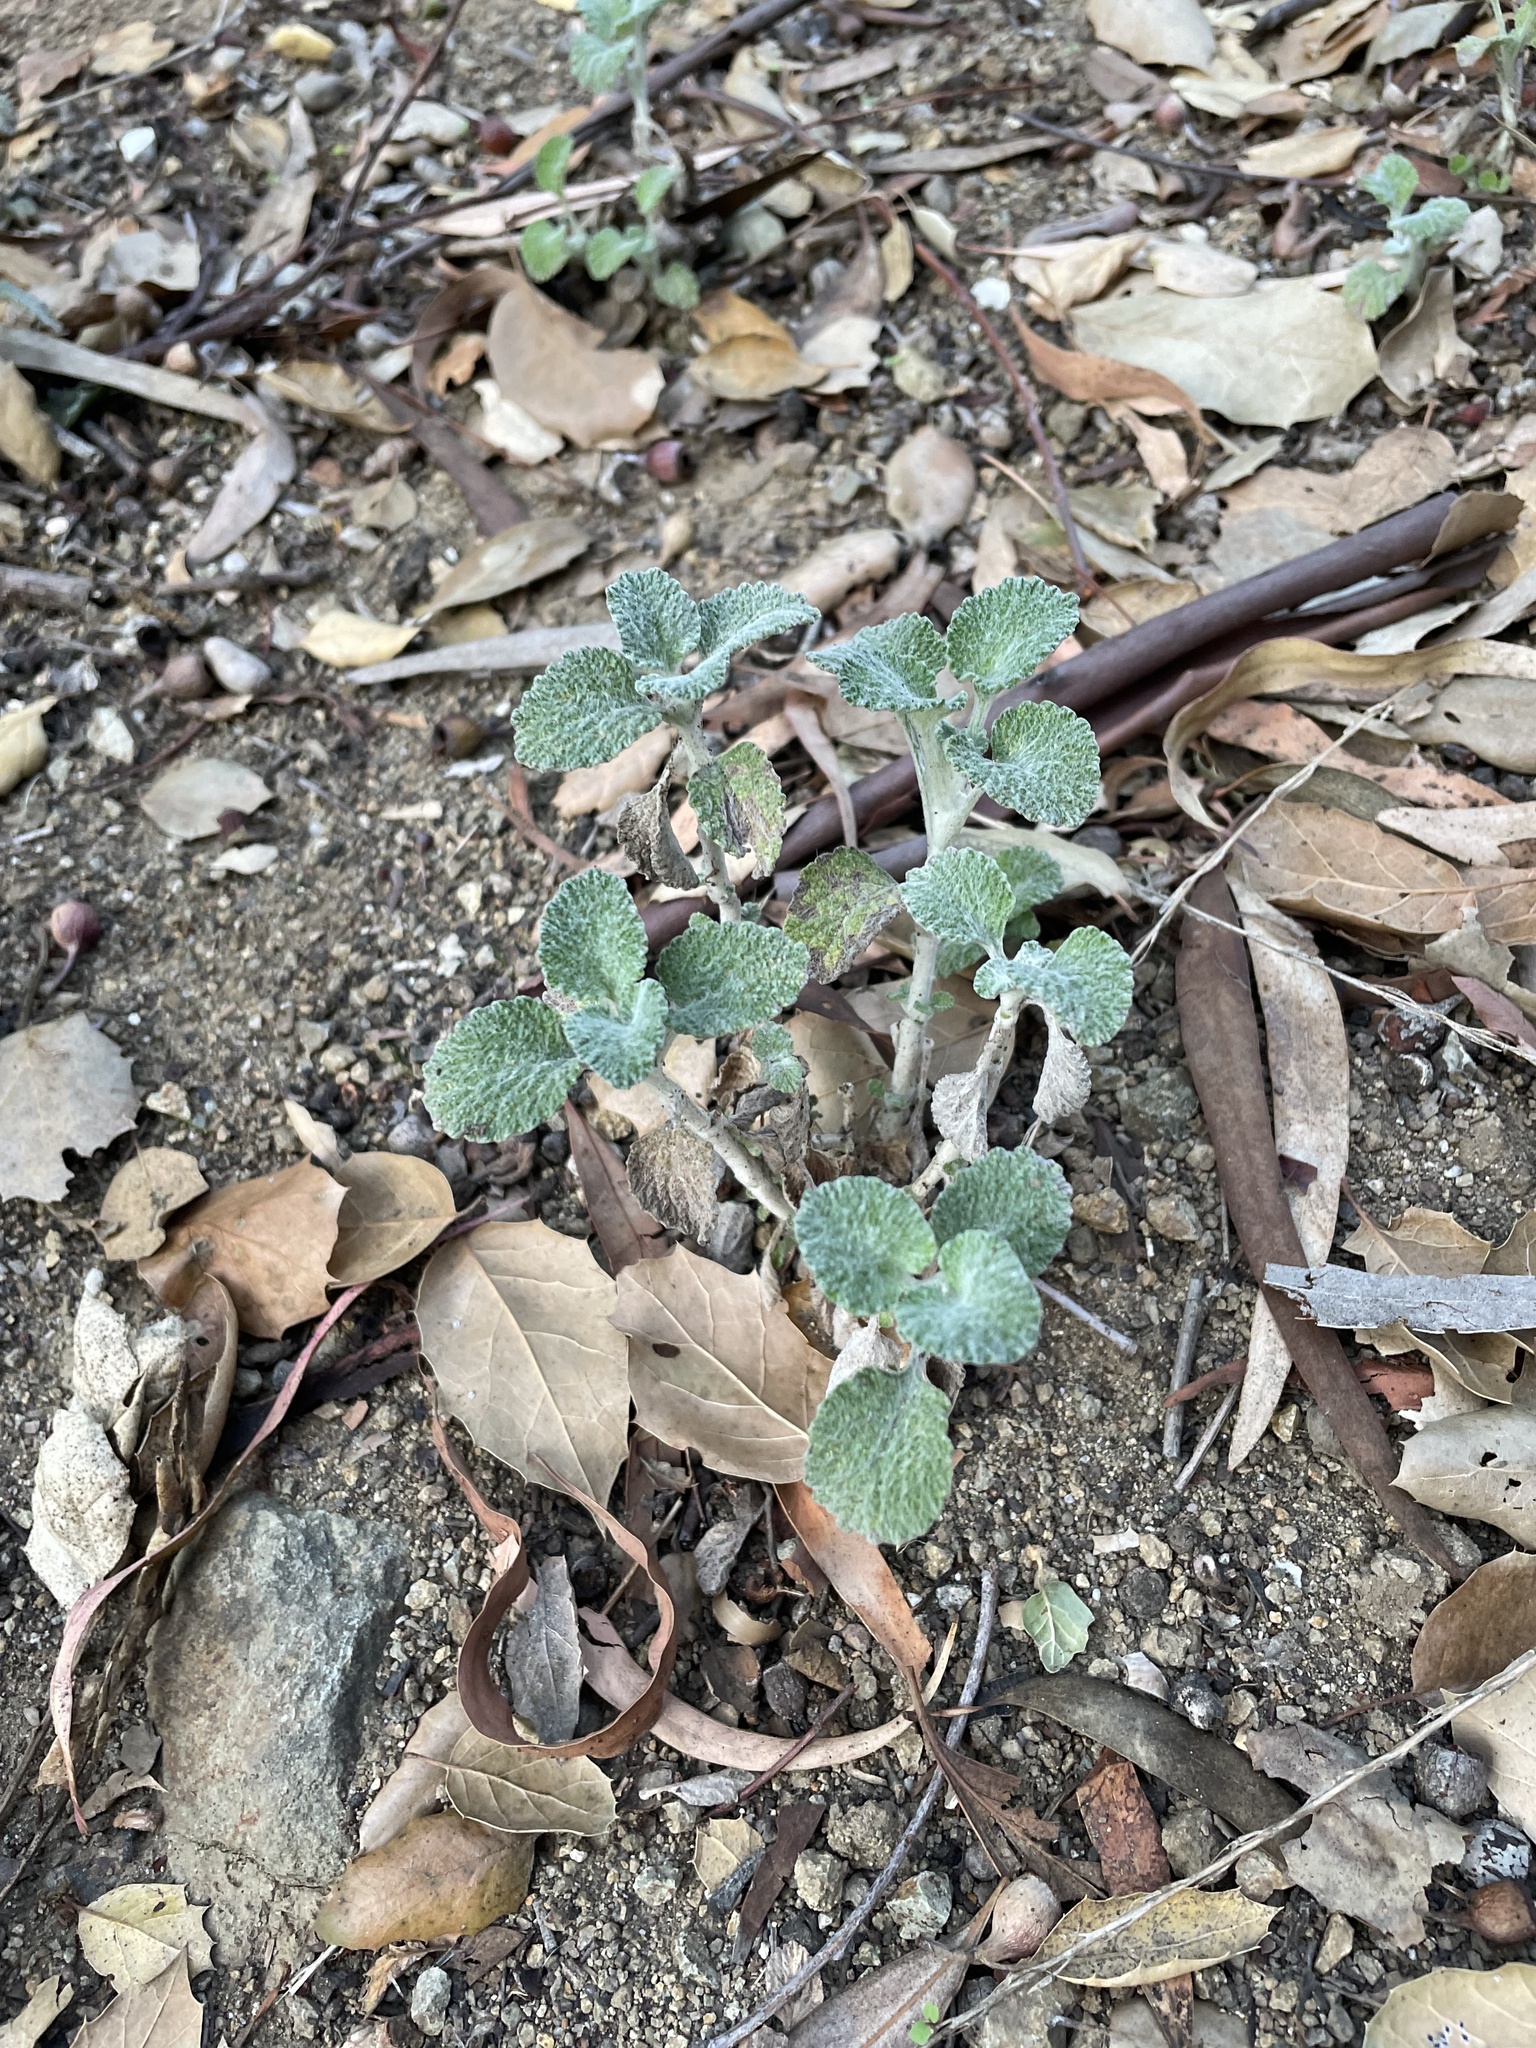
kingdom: Plantae
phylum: Tracheophyta
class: Magnoliopsida
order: Lamiales
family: Lamiaceae
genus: Marrubium
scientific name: Marrubium vulgare
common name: Horehound
